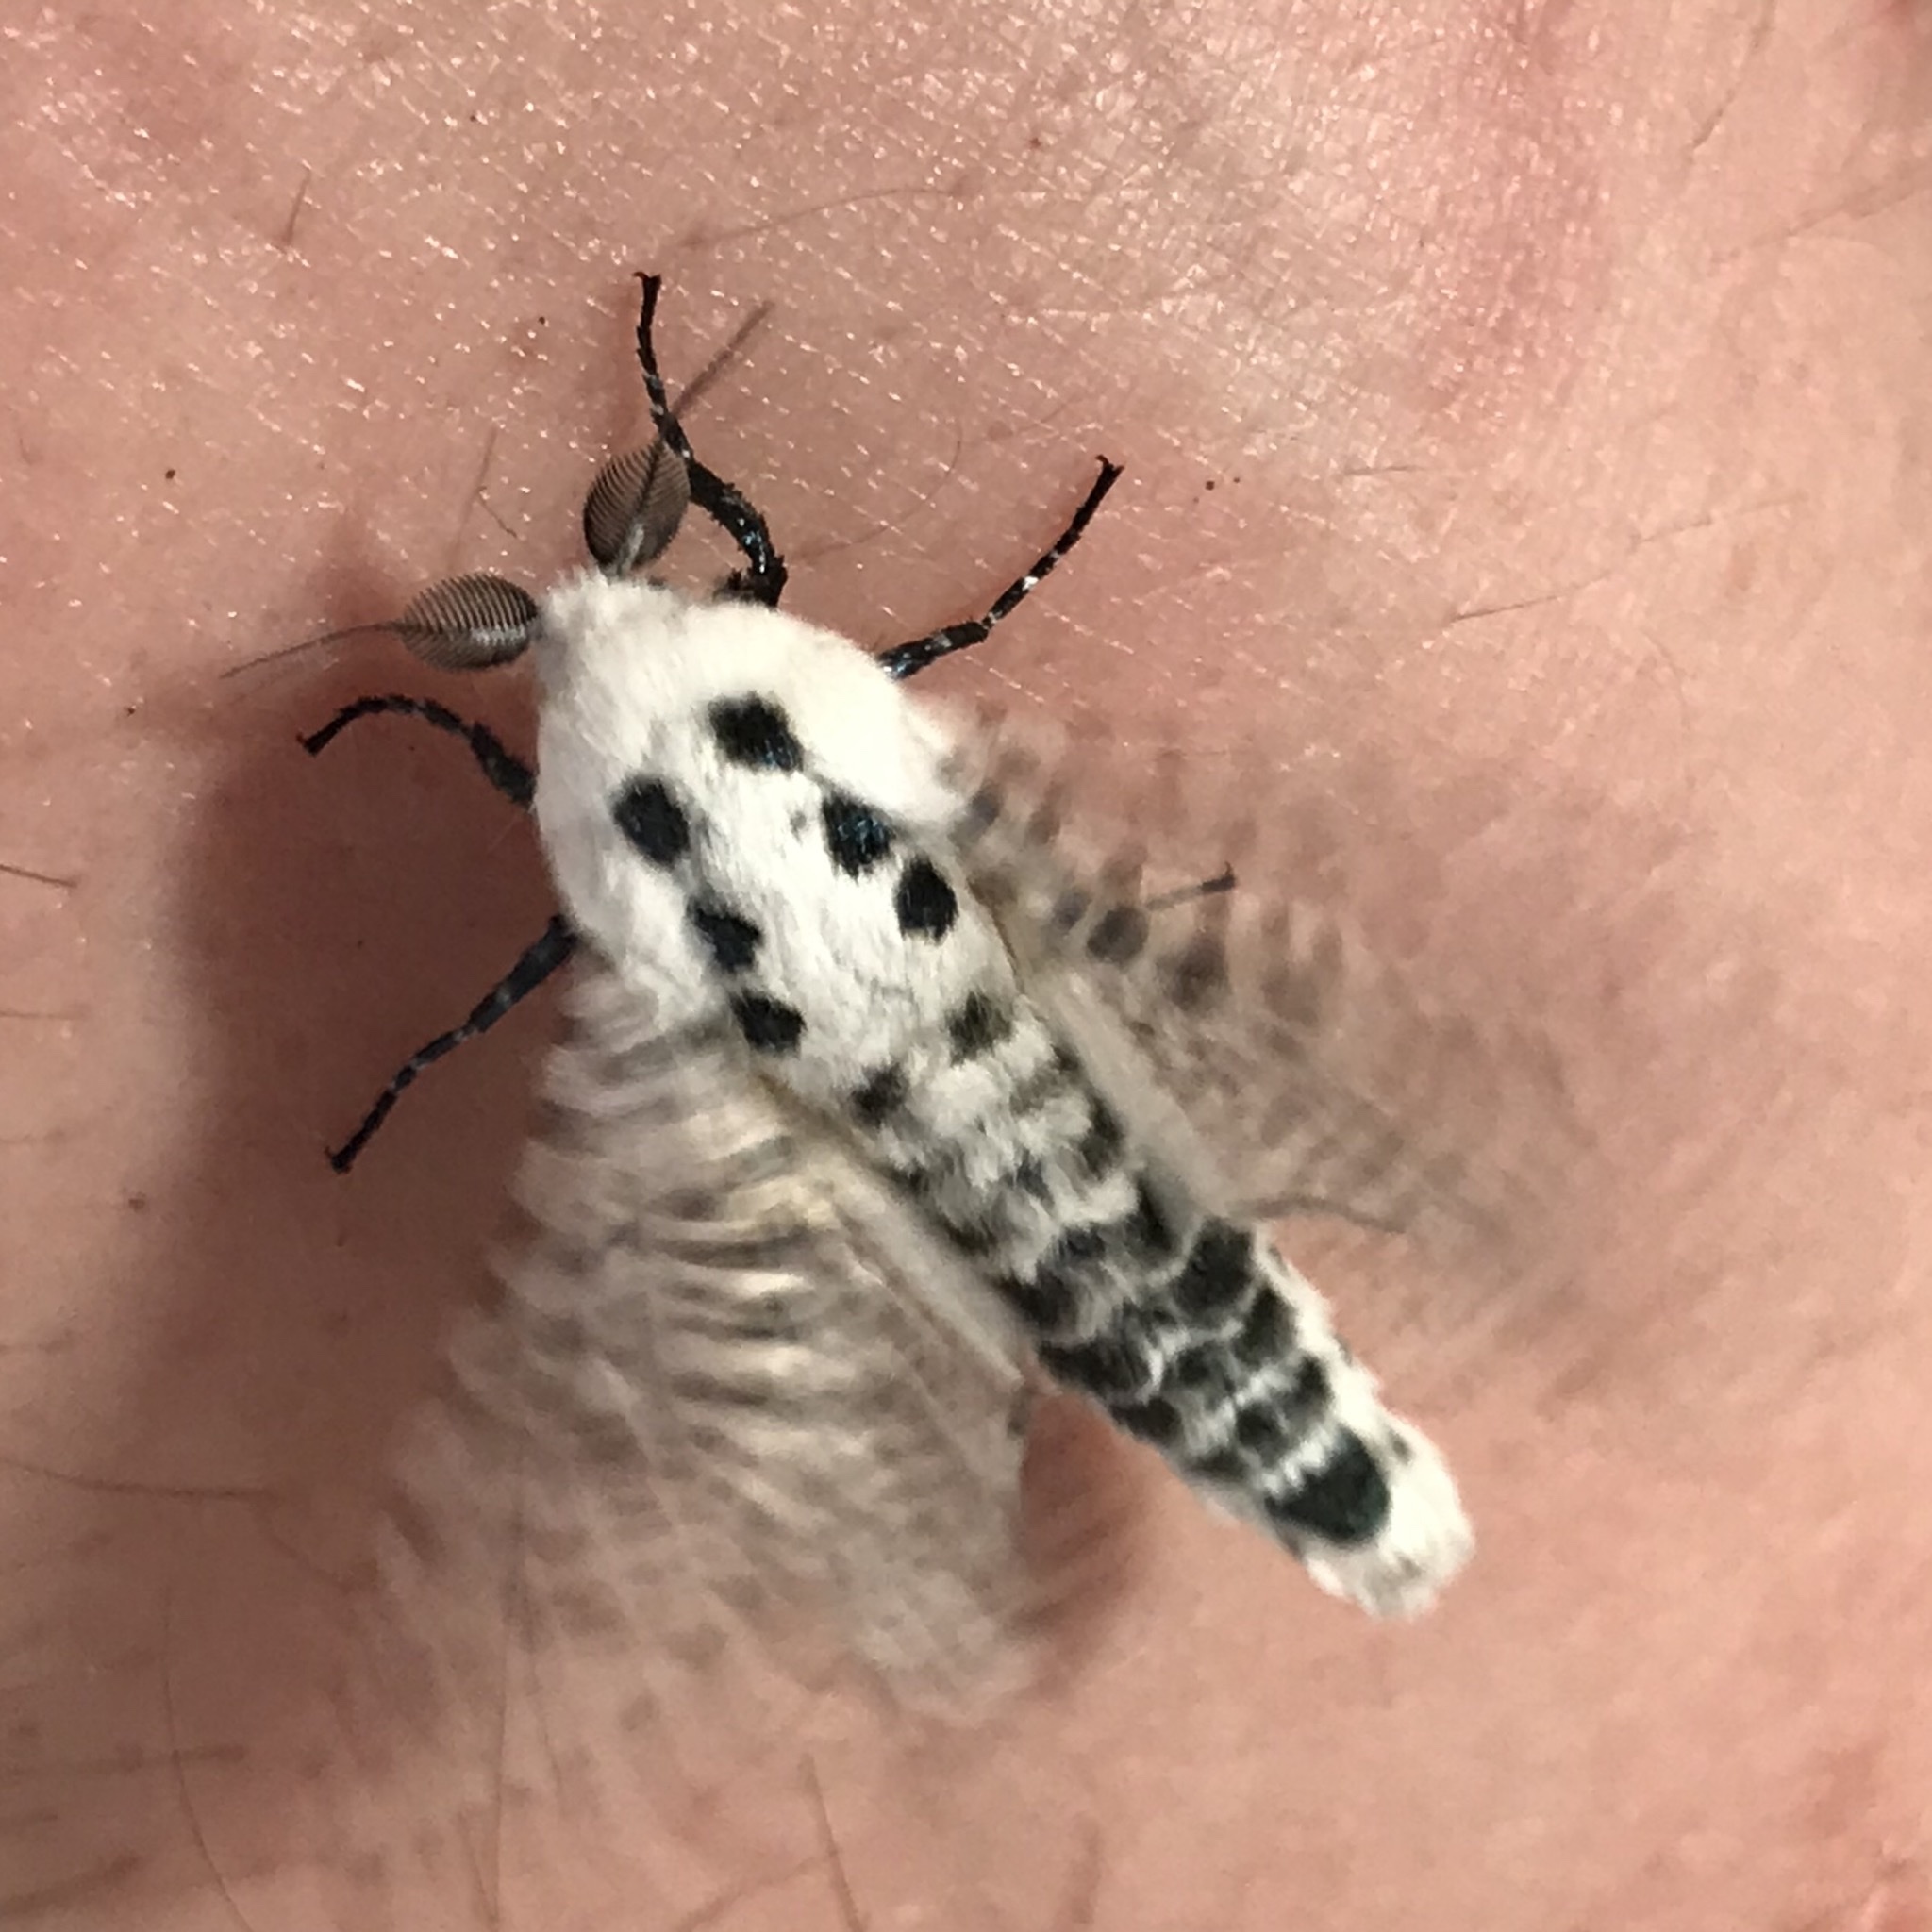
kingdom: Animalia
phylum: Arthropoda
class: Insecta
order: Lepidoptera
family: Cossidae
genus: Zeuzera
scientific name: Zeuzera pyrina
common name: Leopard moth
